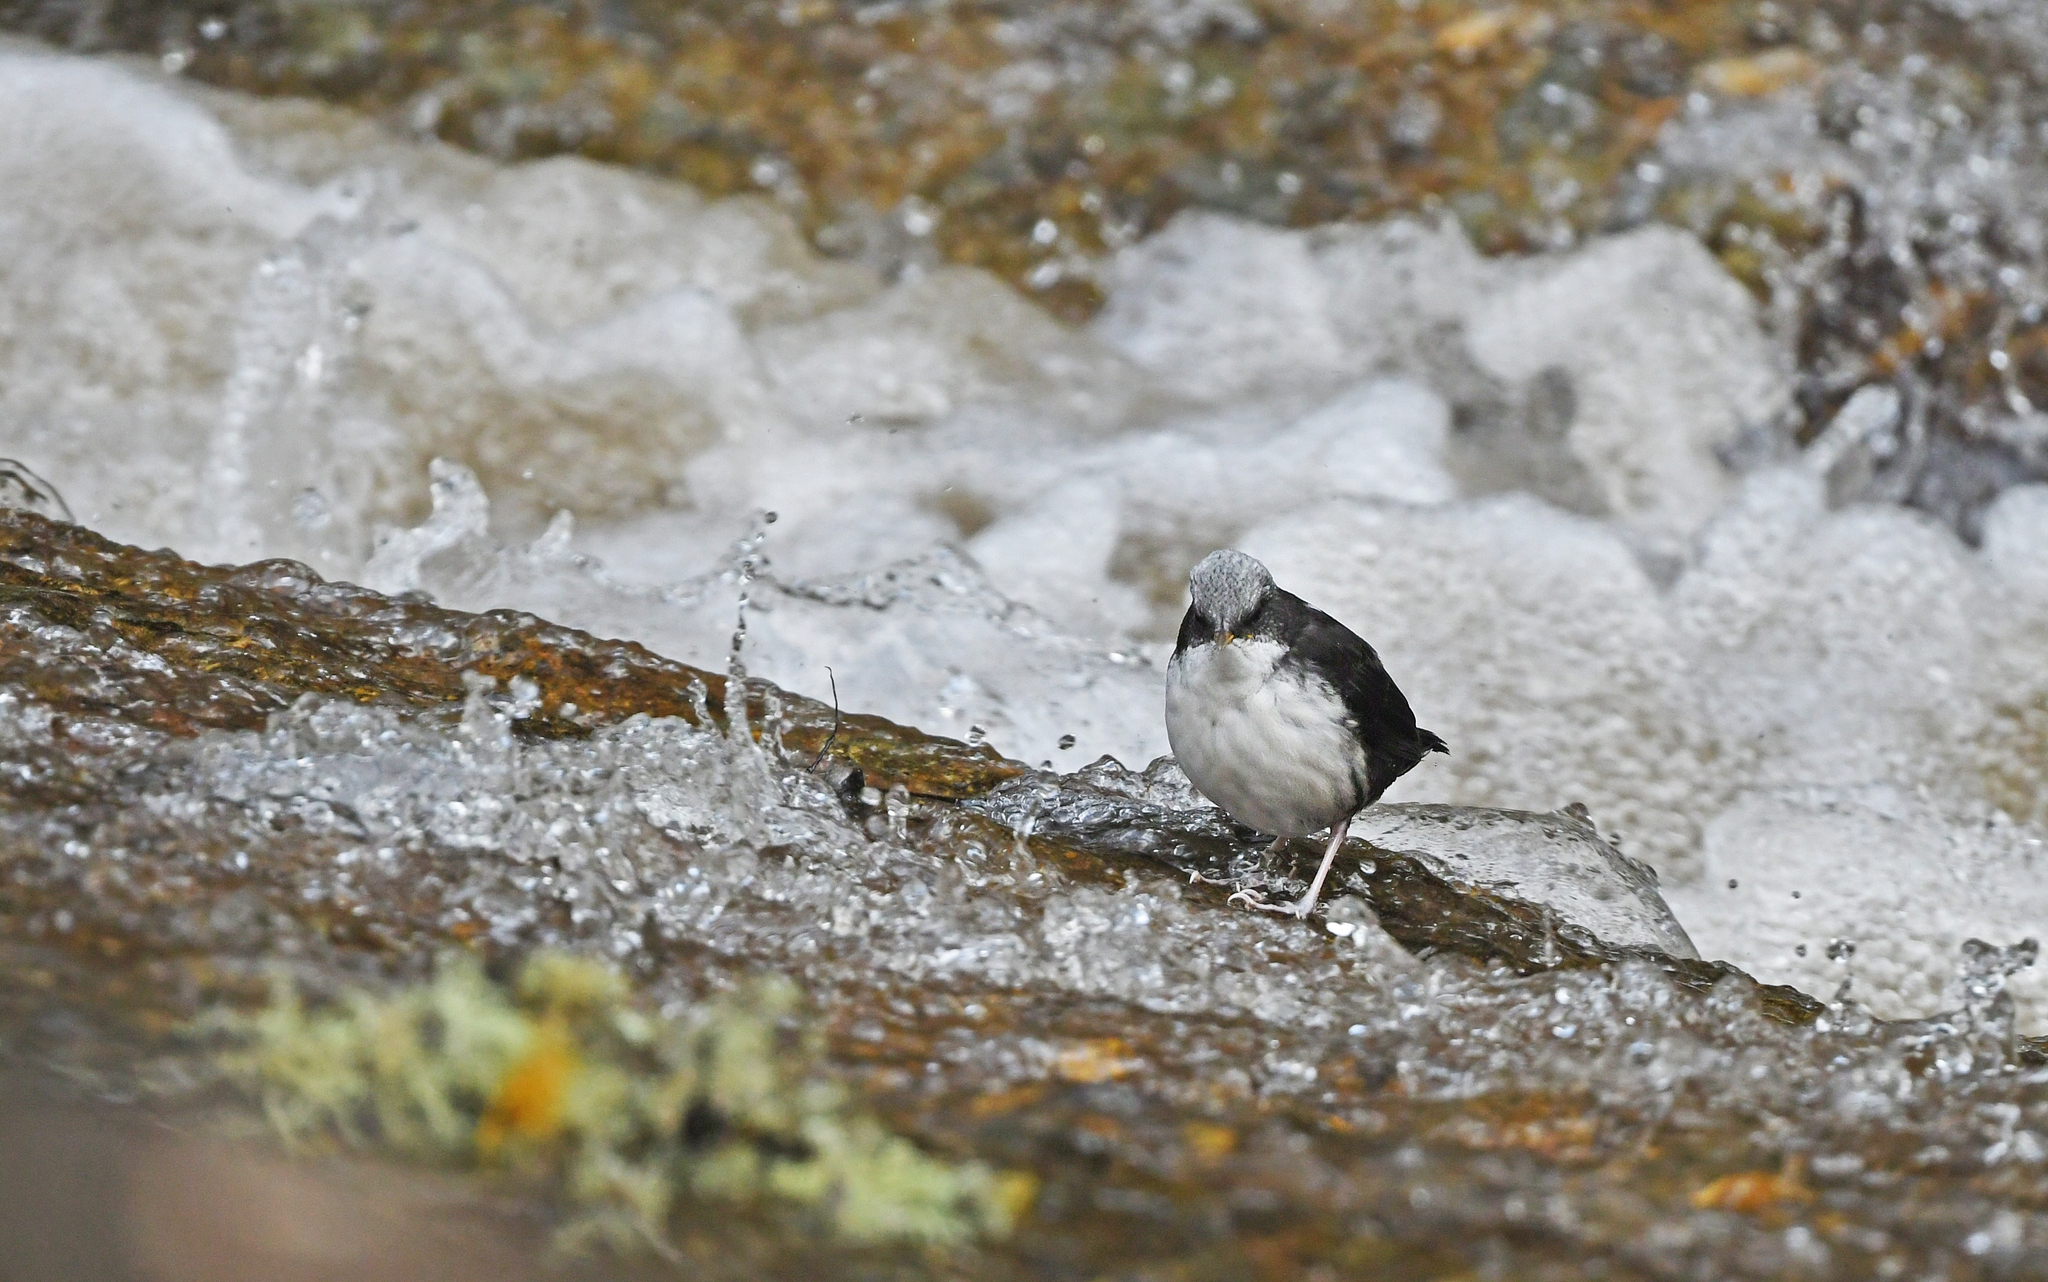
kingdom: Animalia
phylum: Chordata
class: Aves
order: Passeriformes
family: Cinclidae
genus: Cinclus
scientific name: Cinclus leucocephalus
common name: White-capped dipper
